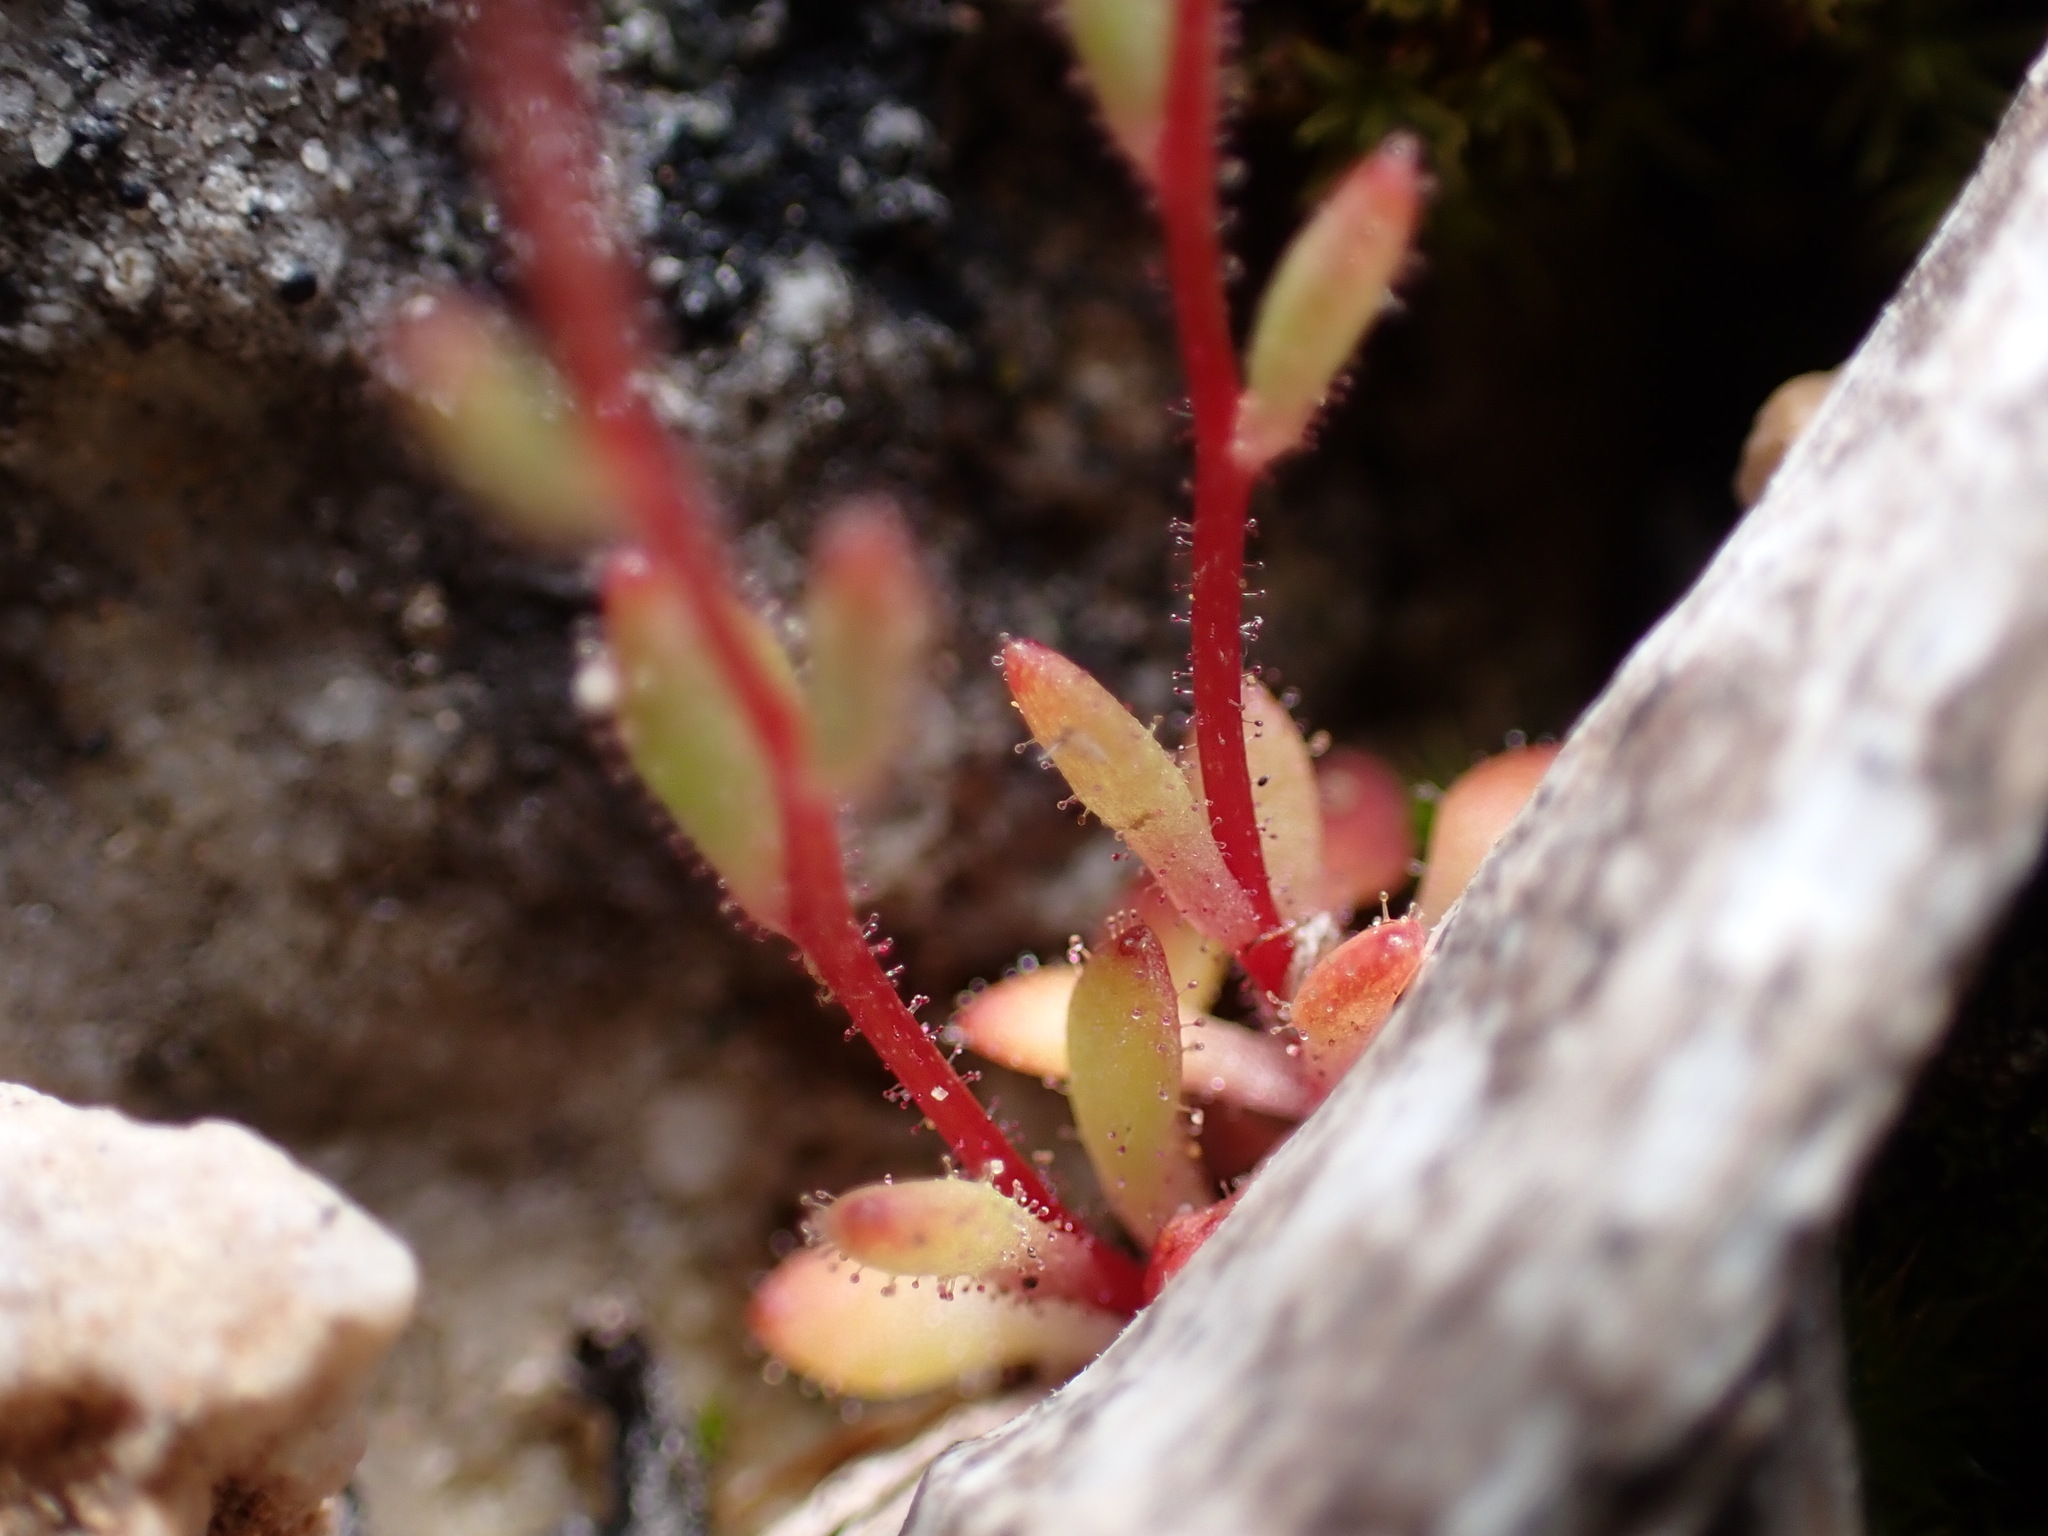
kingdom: Plantae
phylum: Tracheophyta
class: Magnoliopsida
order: Saxifragales
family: Saxifragaceae
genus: Saxifraga
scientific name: Saxifraga tridactylites
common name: Rue-leaved saxifrage
